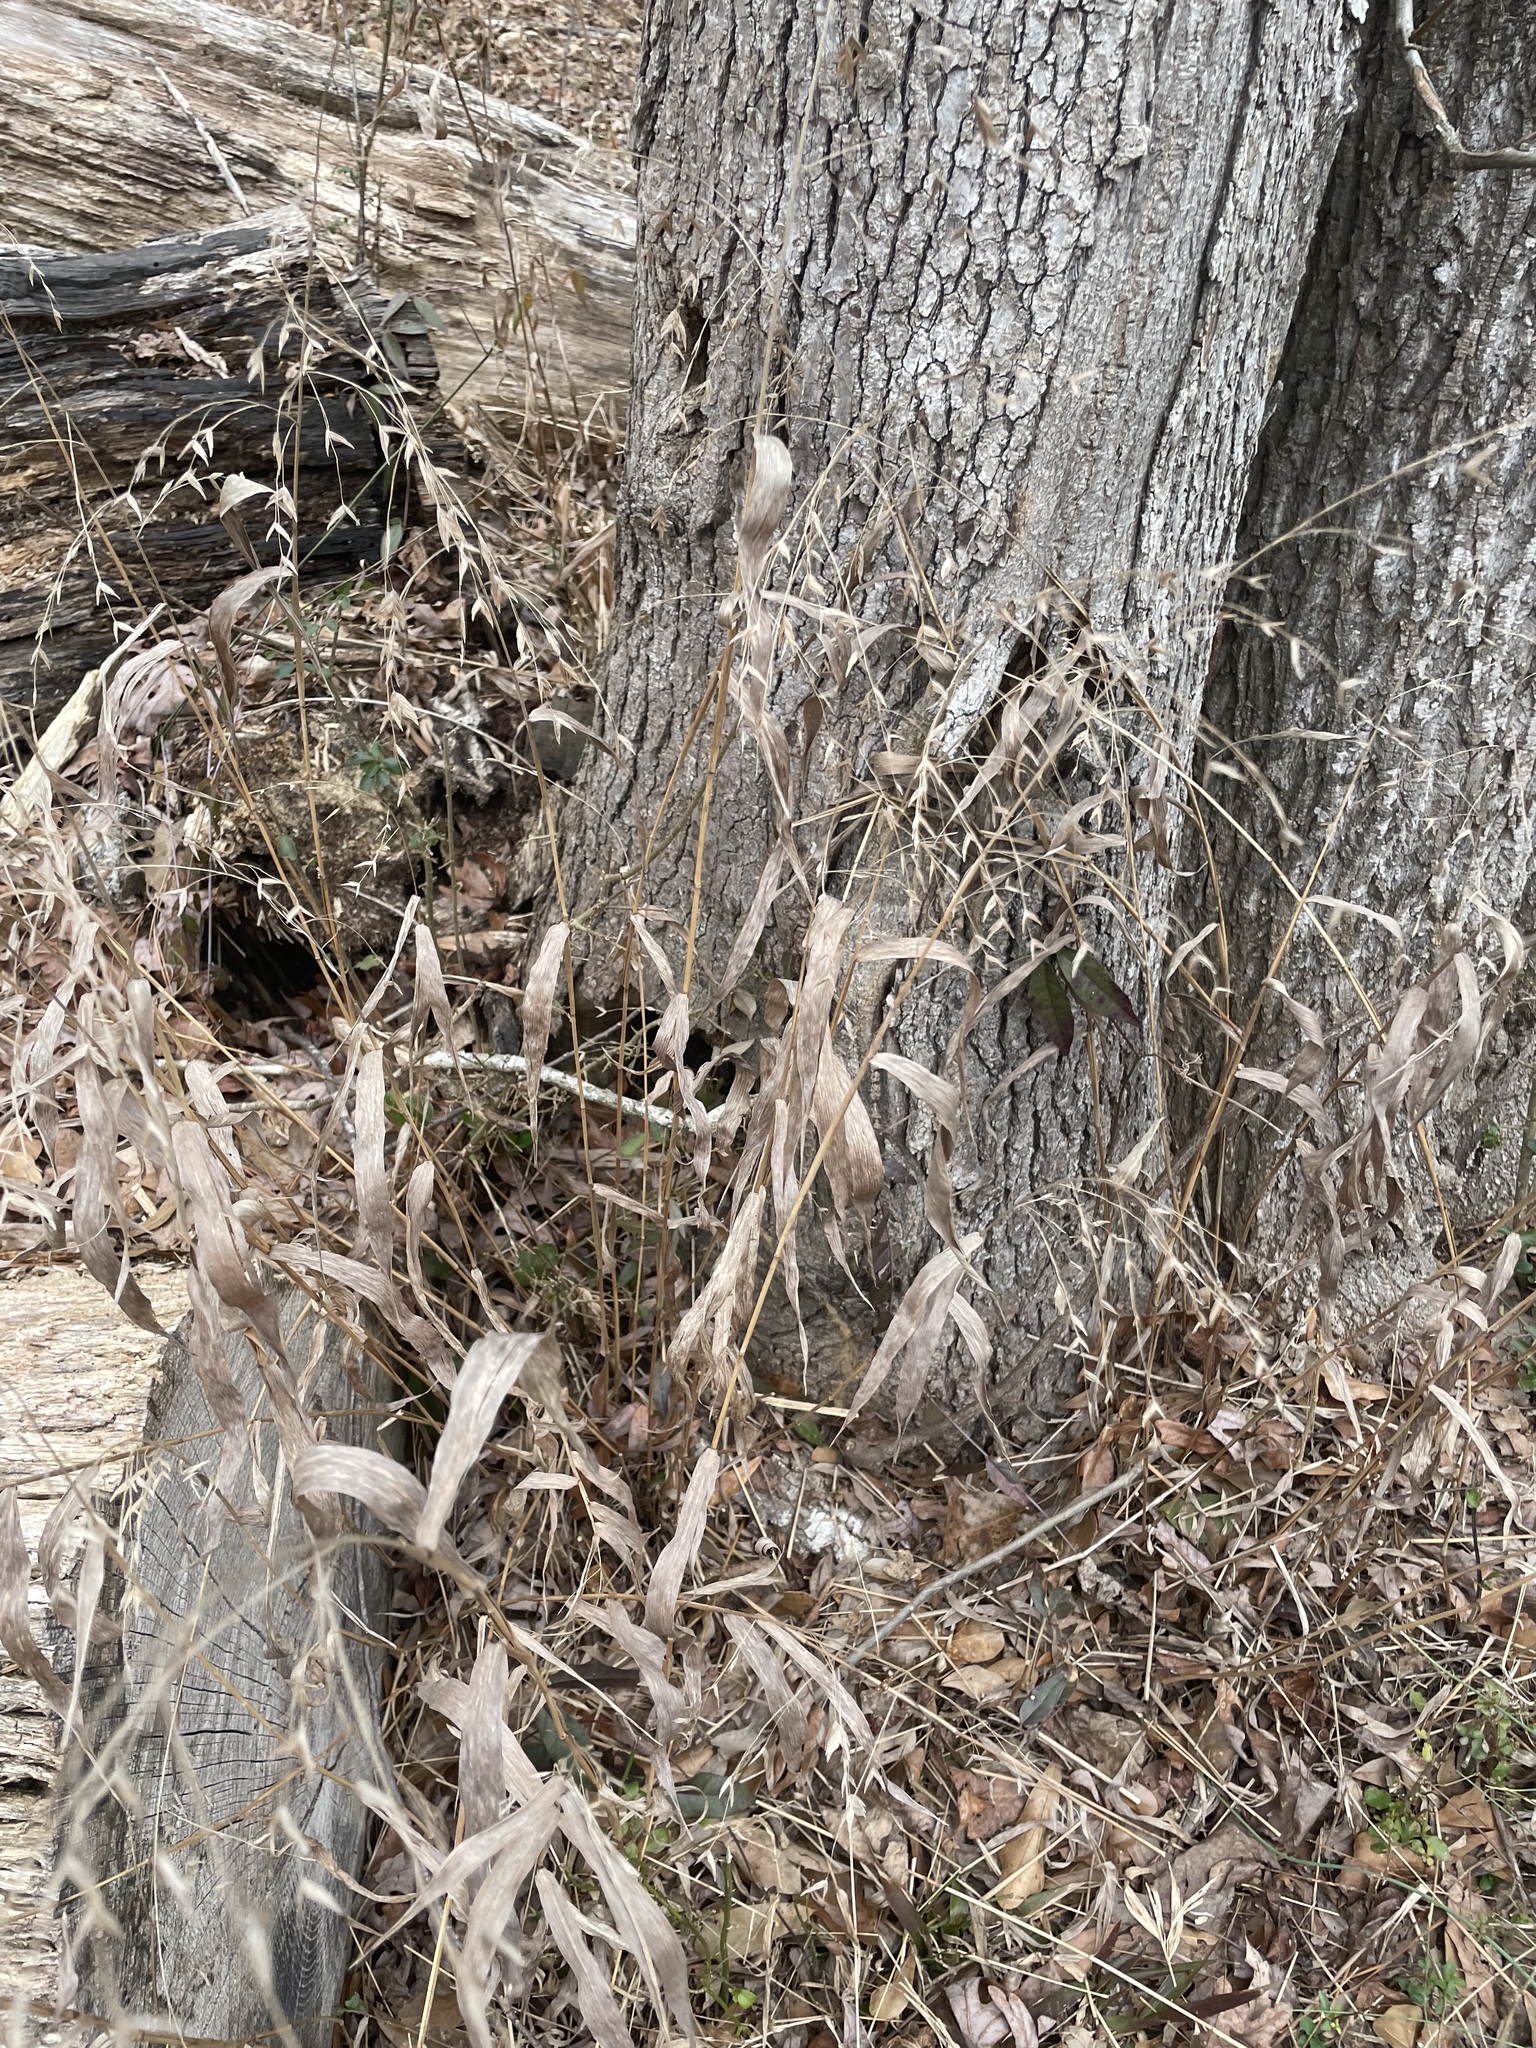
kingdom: Plantae
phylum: Tracheophyta
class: Liliopsida
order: Poales
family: Poaceae
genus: Chasmanthium
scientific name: Chasmanthium latifolium
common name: Broad-leaved chasmanthium
